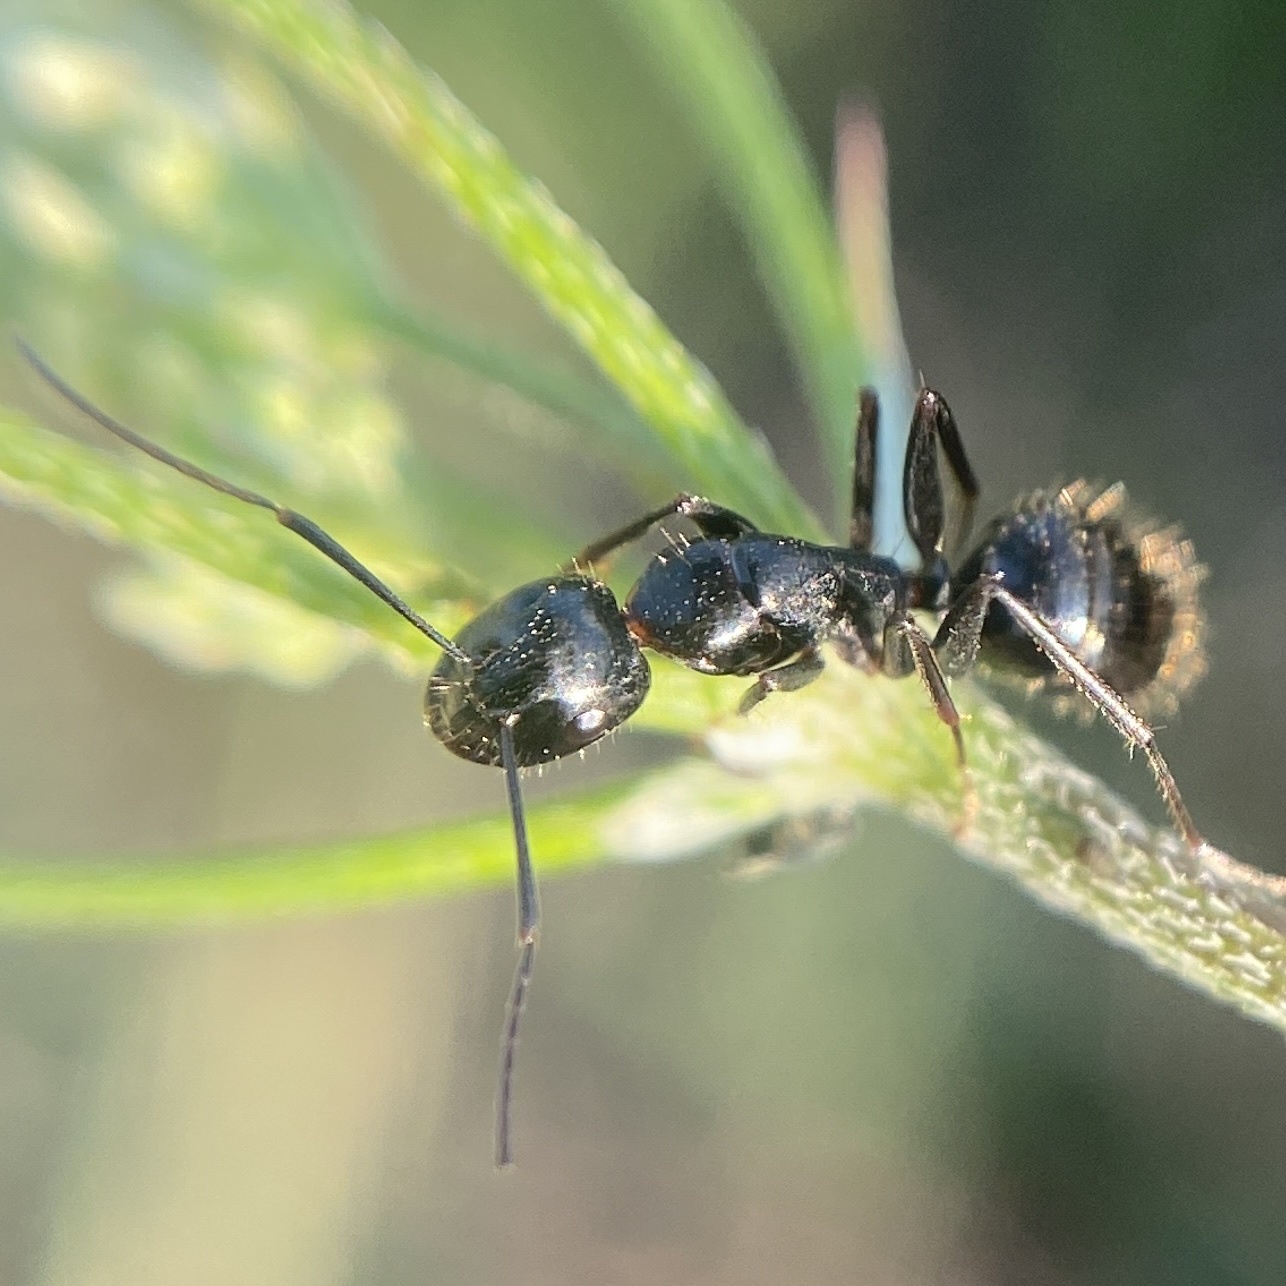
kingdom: Animalia
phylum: Arthropoda
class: Insecta
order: Hymenoptera
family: Formicidae
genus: Camponotus
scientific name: Camponotus aethiops
